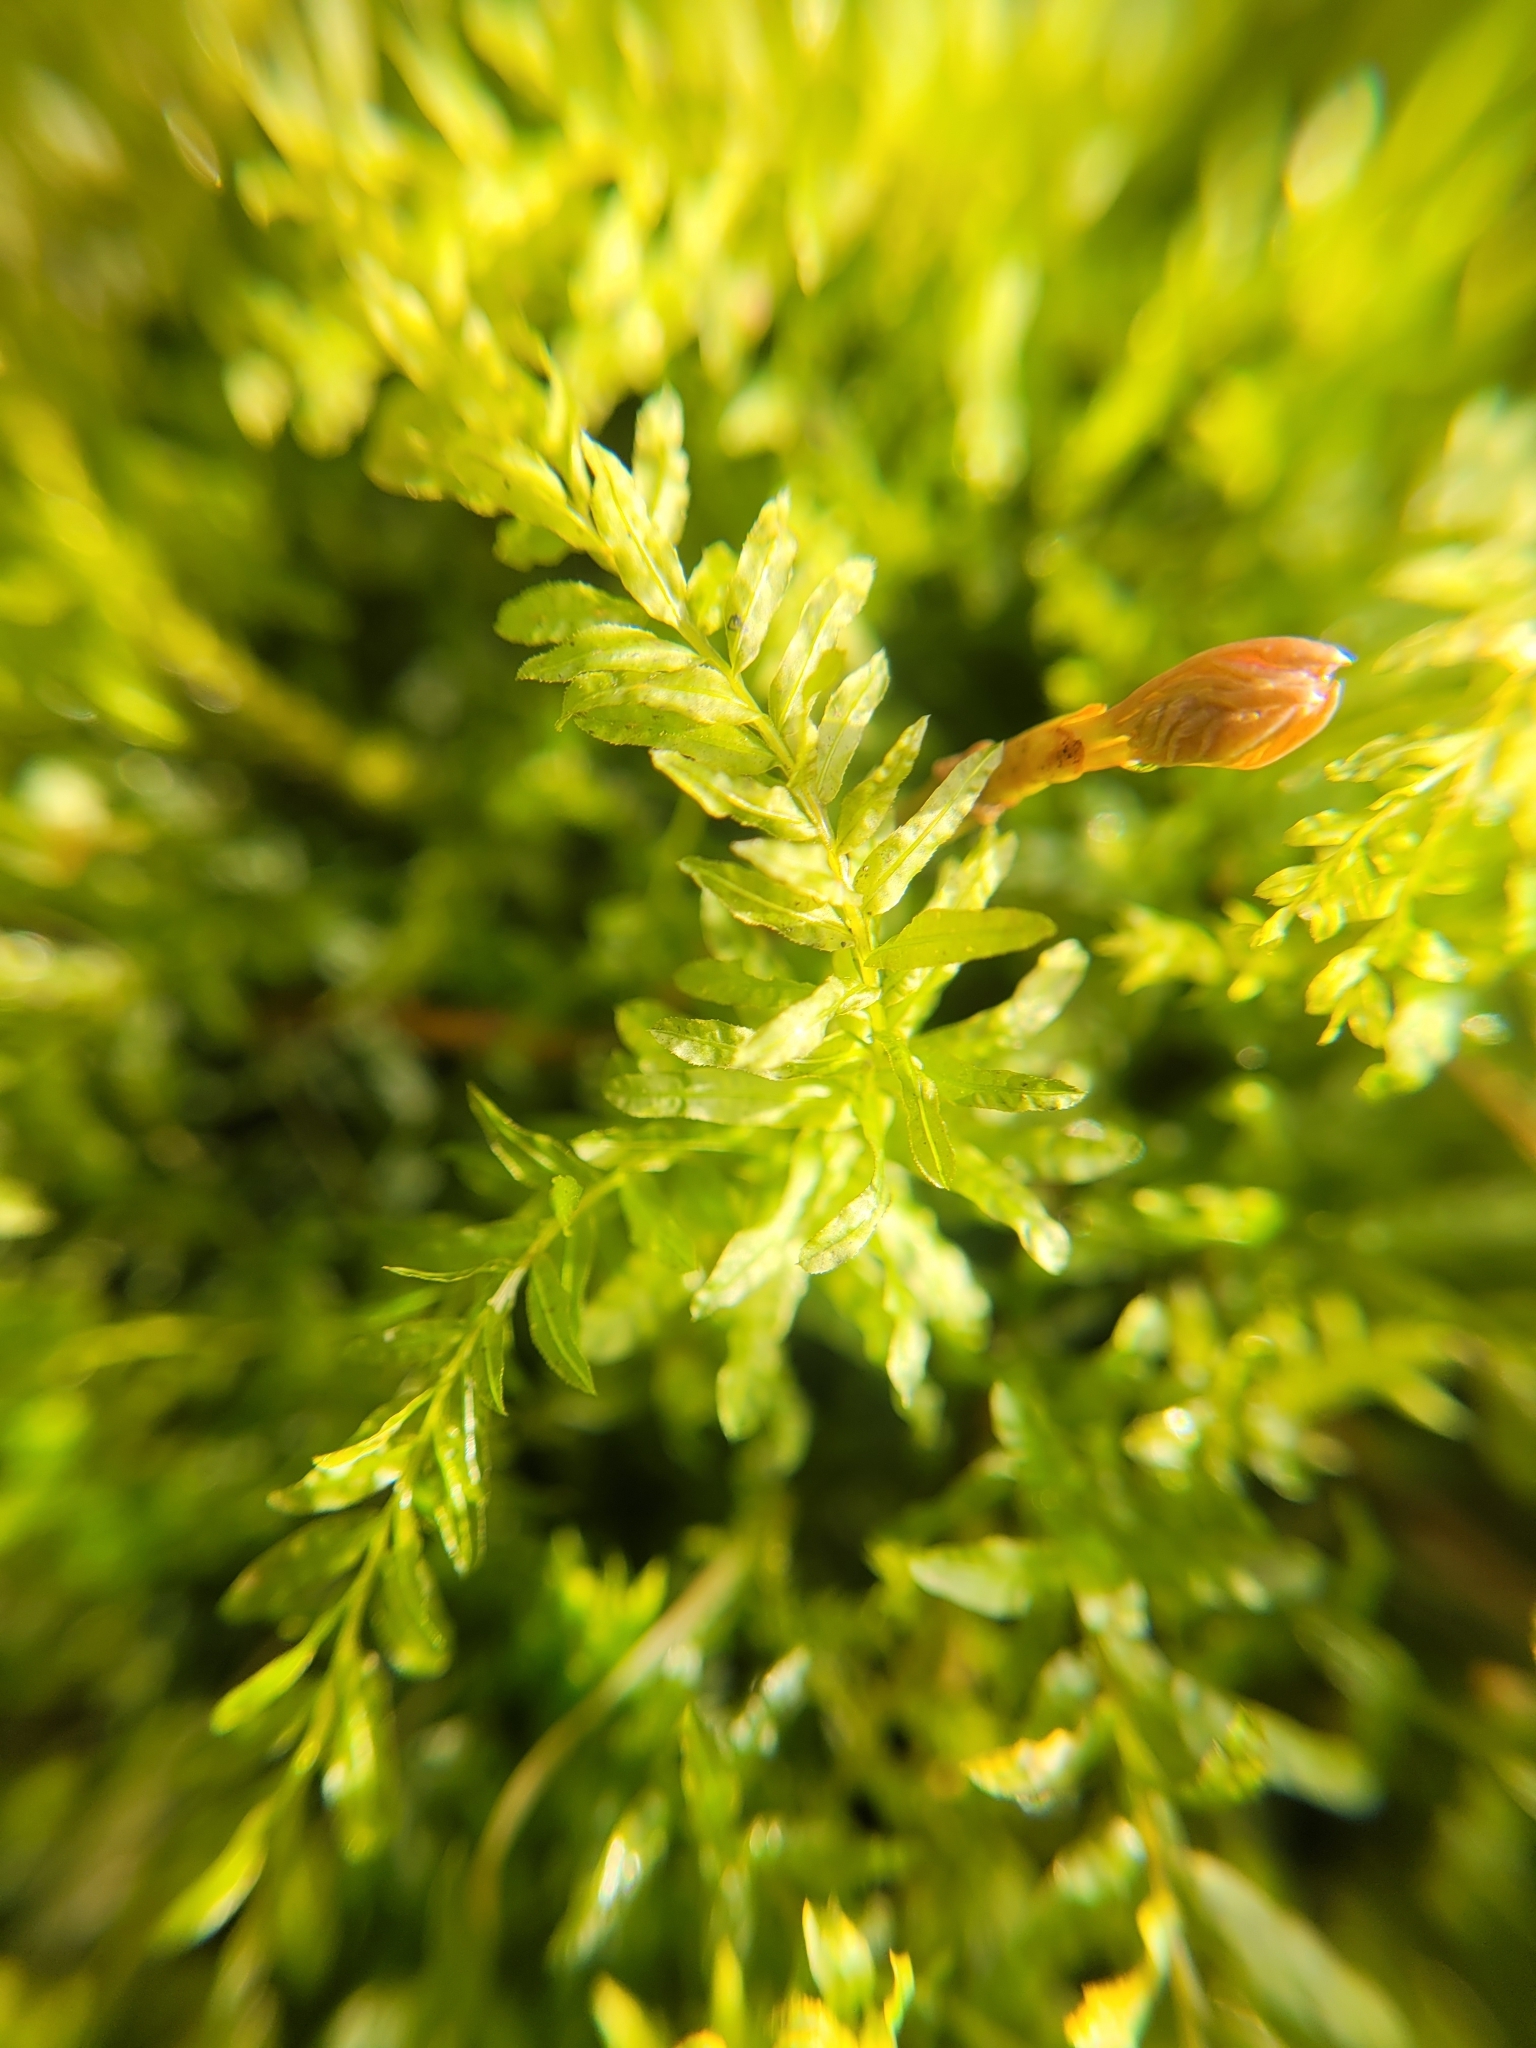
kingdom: Plantae
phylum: Bryophyta
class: Bryopsida
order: Bryales
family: Mniaceae
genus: Plagiomnium
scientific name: Plagiomnium undulatum
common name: Hart's-tongue thyme-moss
